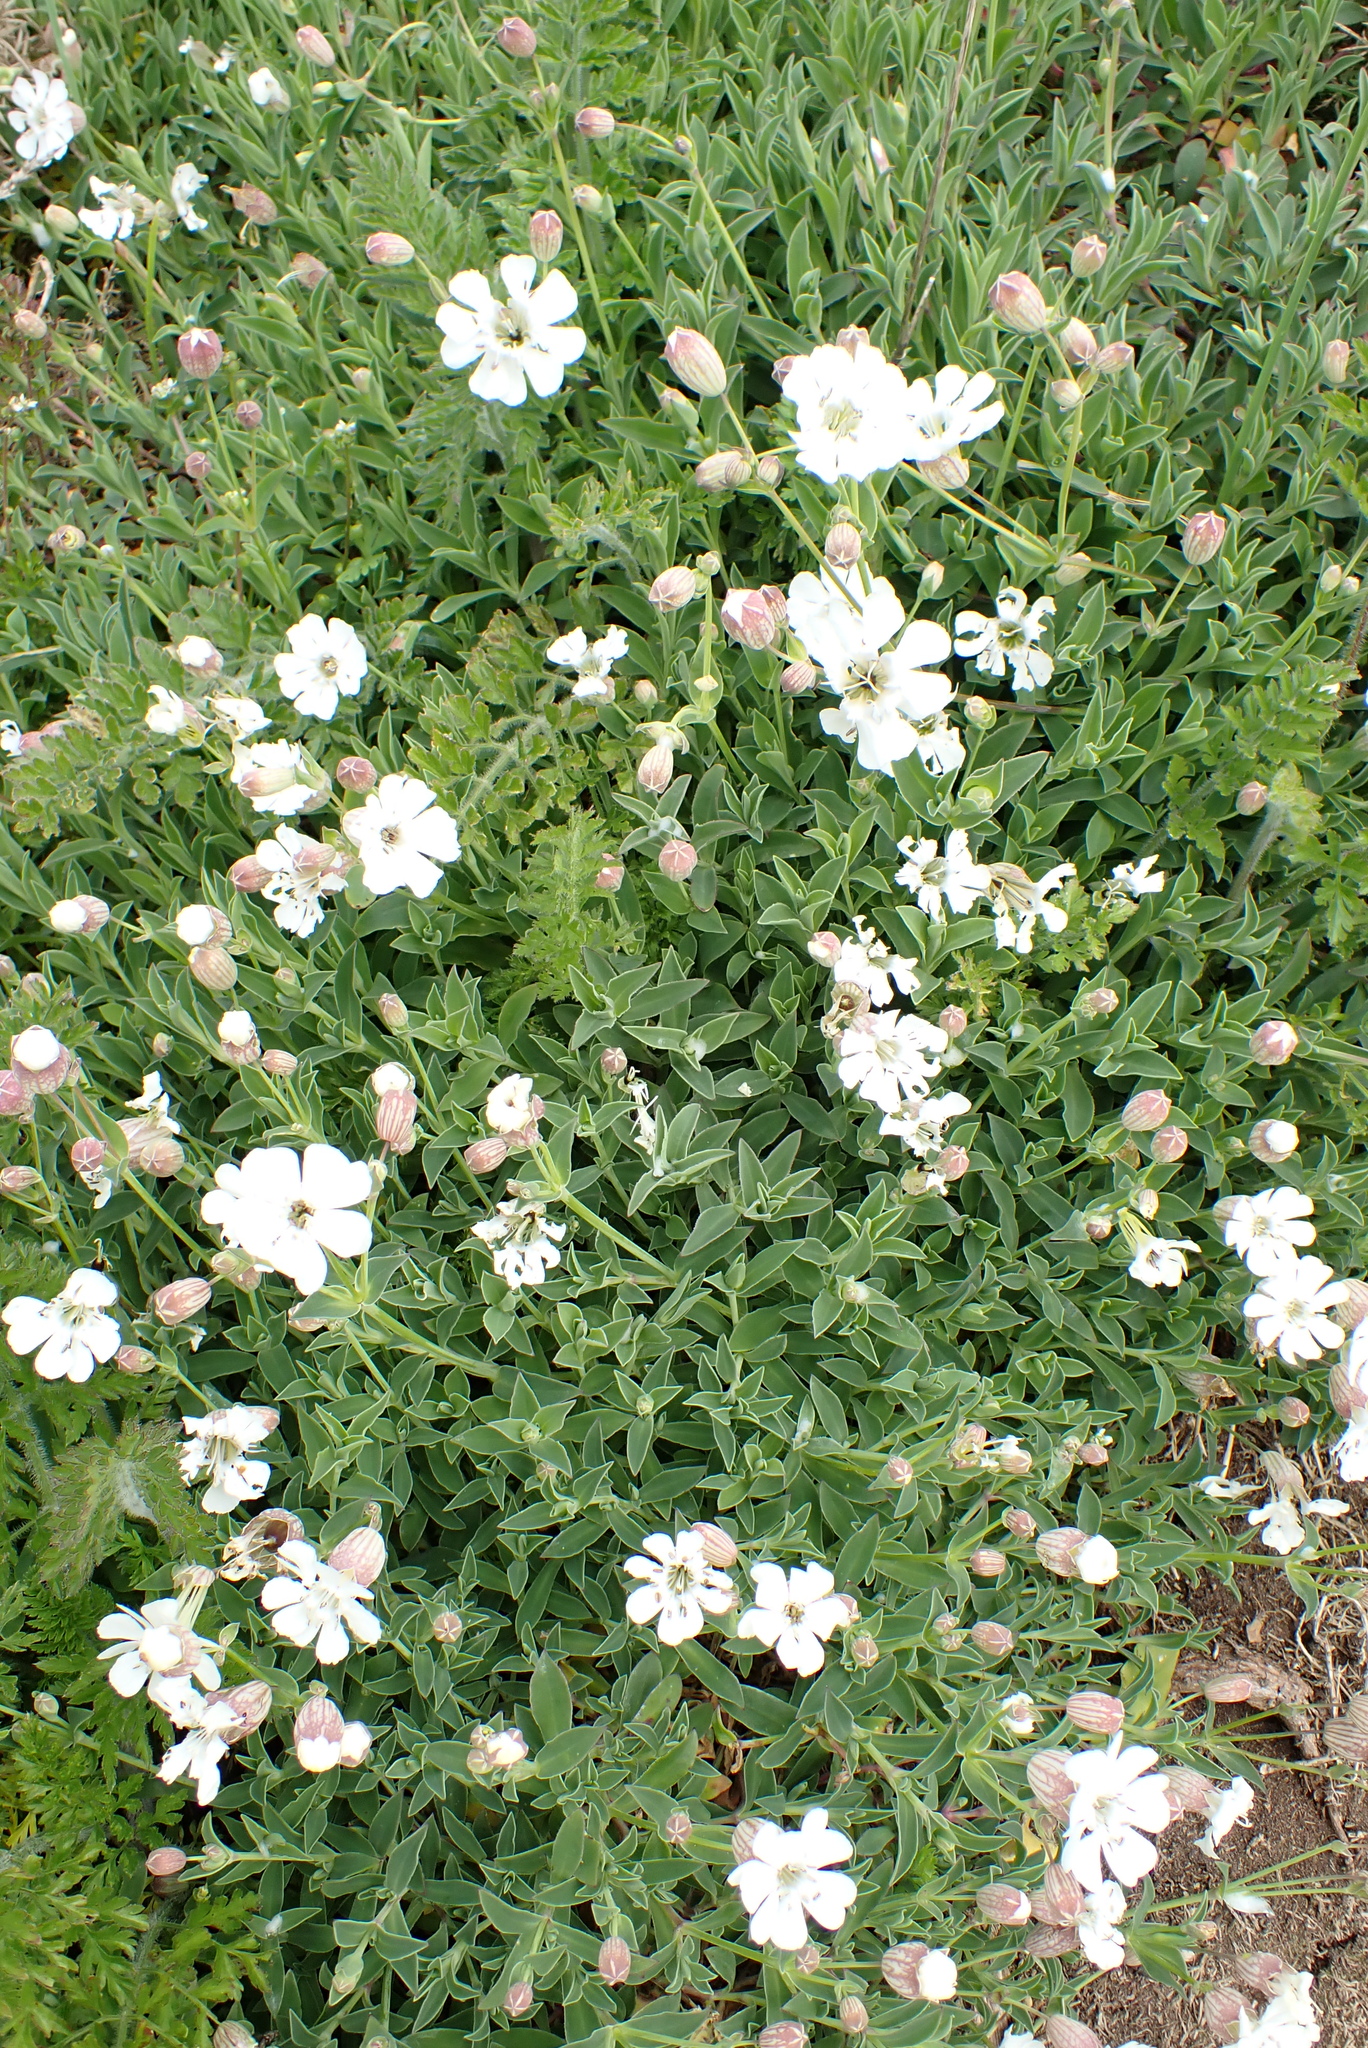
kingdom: Plantae
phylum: Tracheophyta
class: Magnoliopsida
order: Caryophyllales
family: Caryophyllaceae
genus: Silene
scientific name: Silene uniflora
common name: Sea campion
